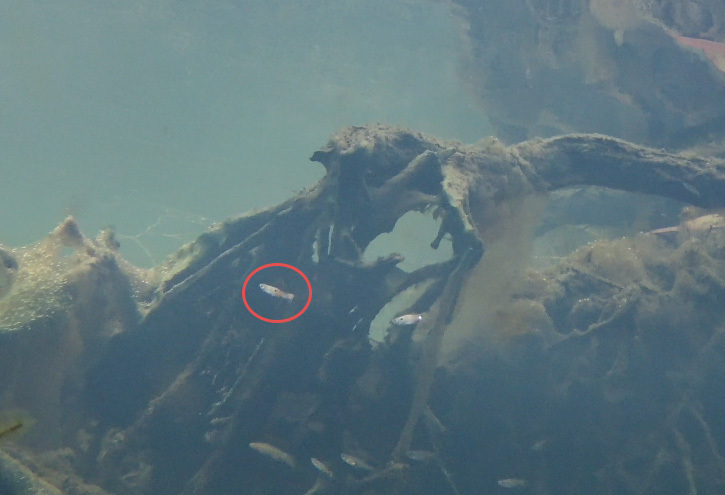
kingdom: Animalia
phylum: Chordata
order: Cyprinodontiformes
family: Poeciliidae
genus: Poecilia
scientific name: Poecilia reticulata
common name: Guppy
